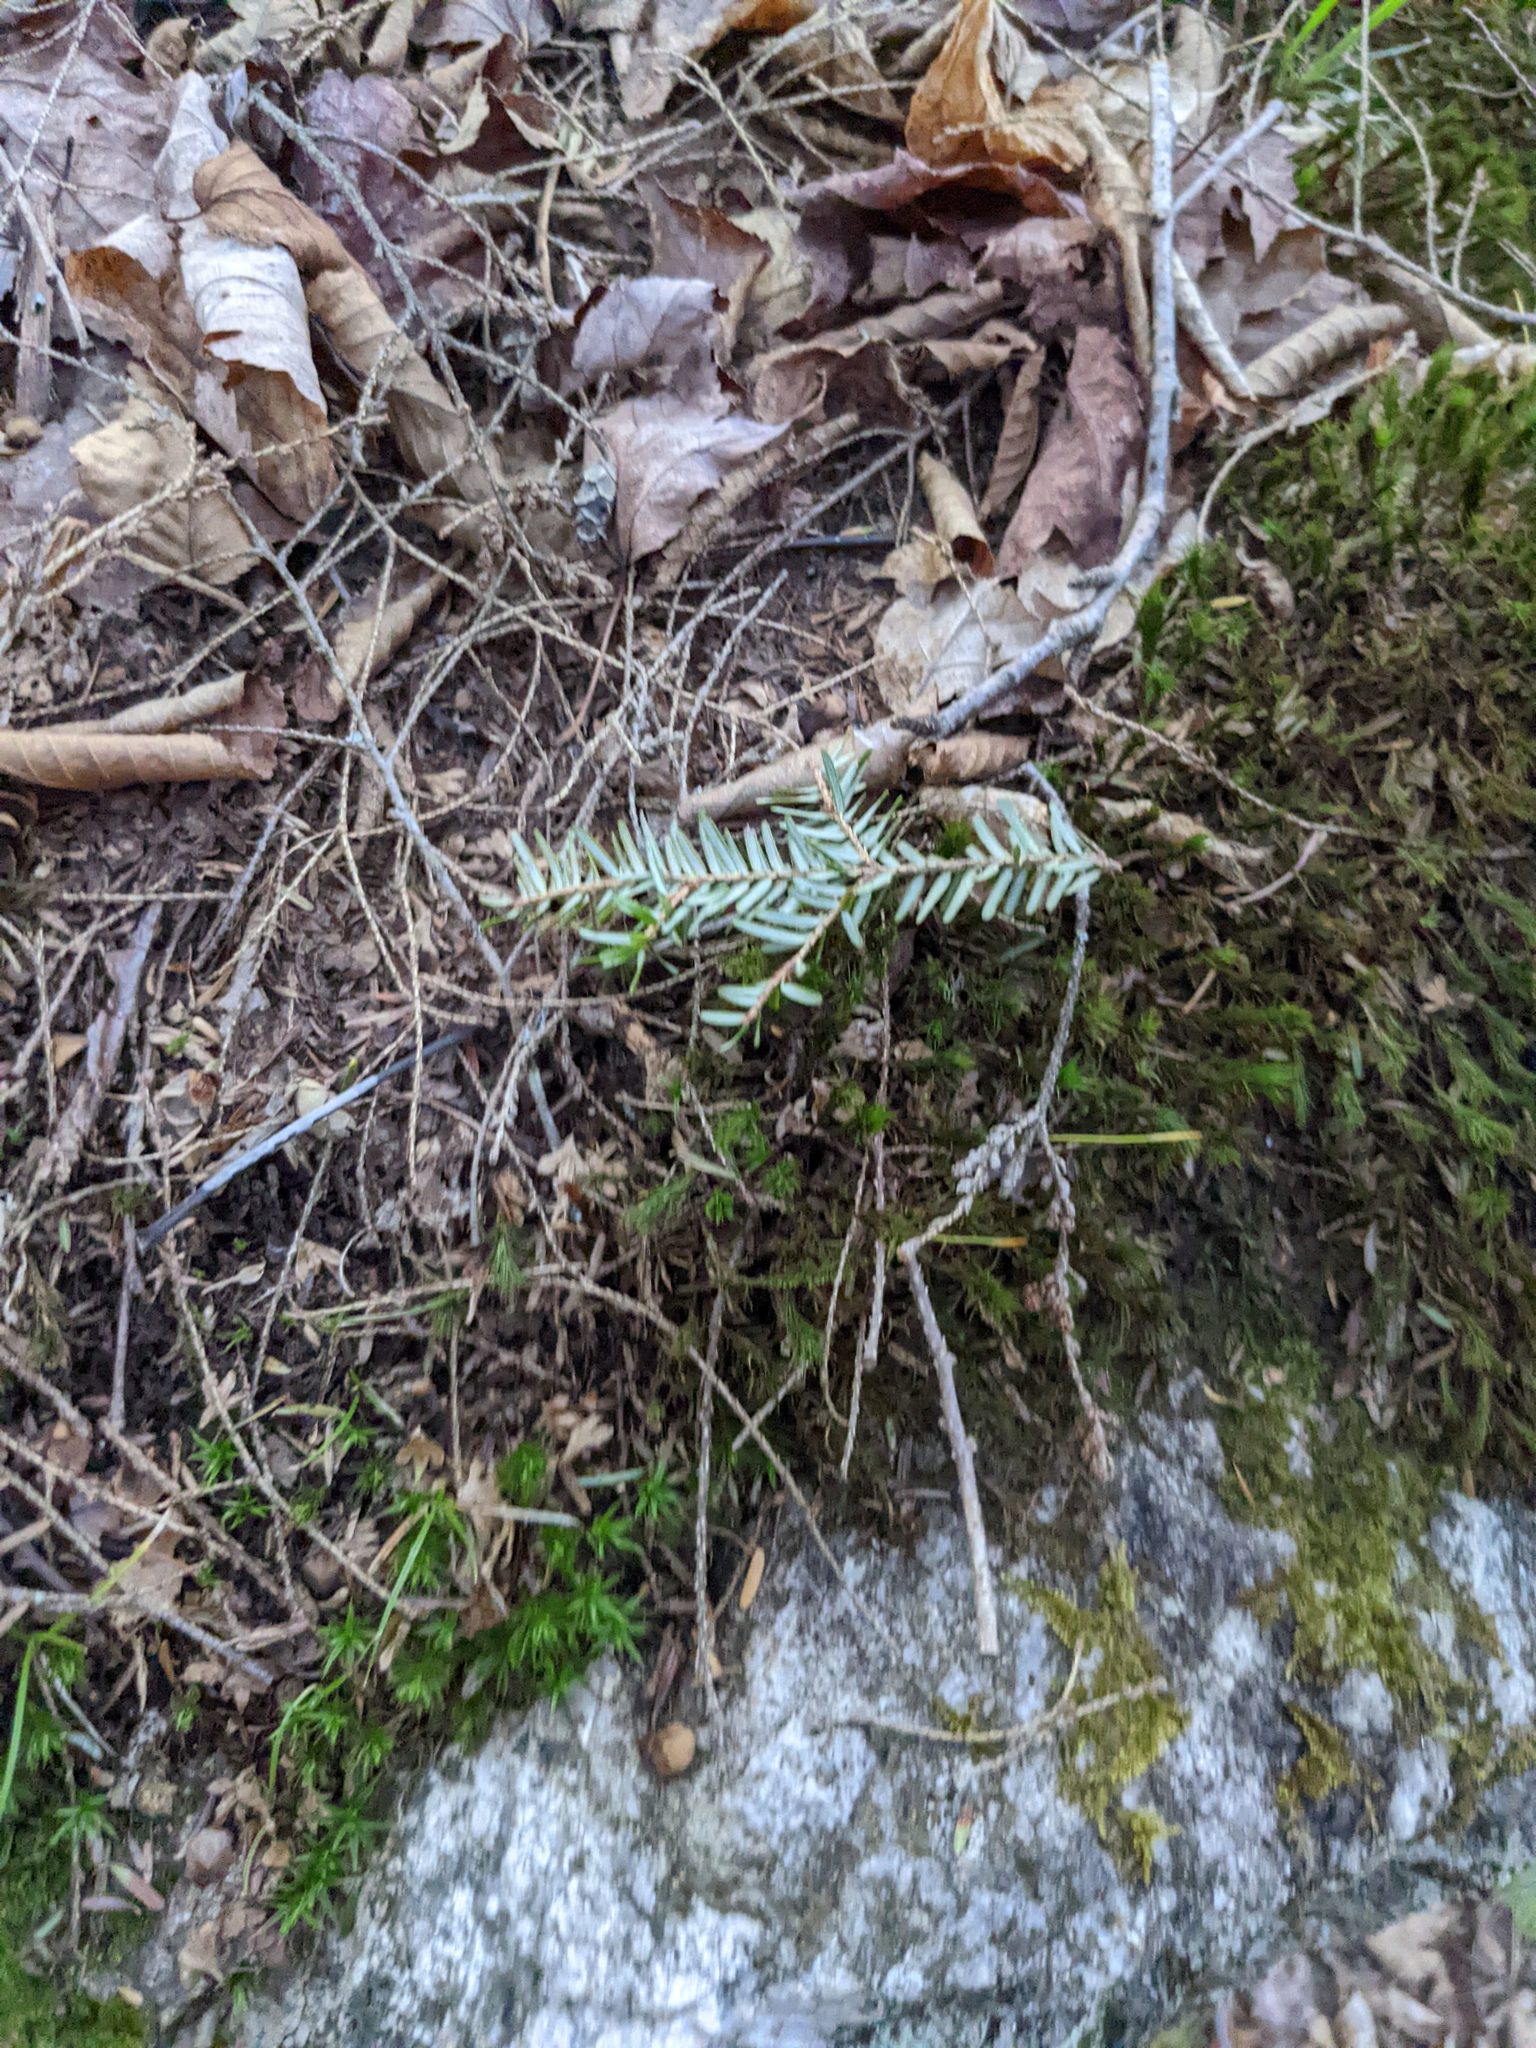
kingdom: Plantae
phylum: Tracheophyta
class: Pinopsida
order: Pinales
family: Pinaceae
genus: Tsuga
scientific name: Tsuga canadensis
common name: Eastern hemlock
